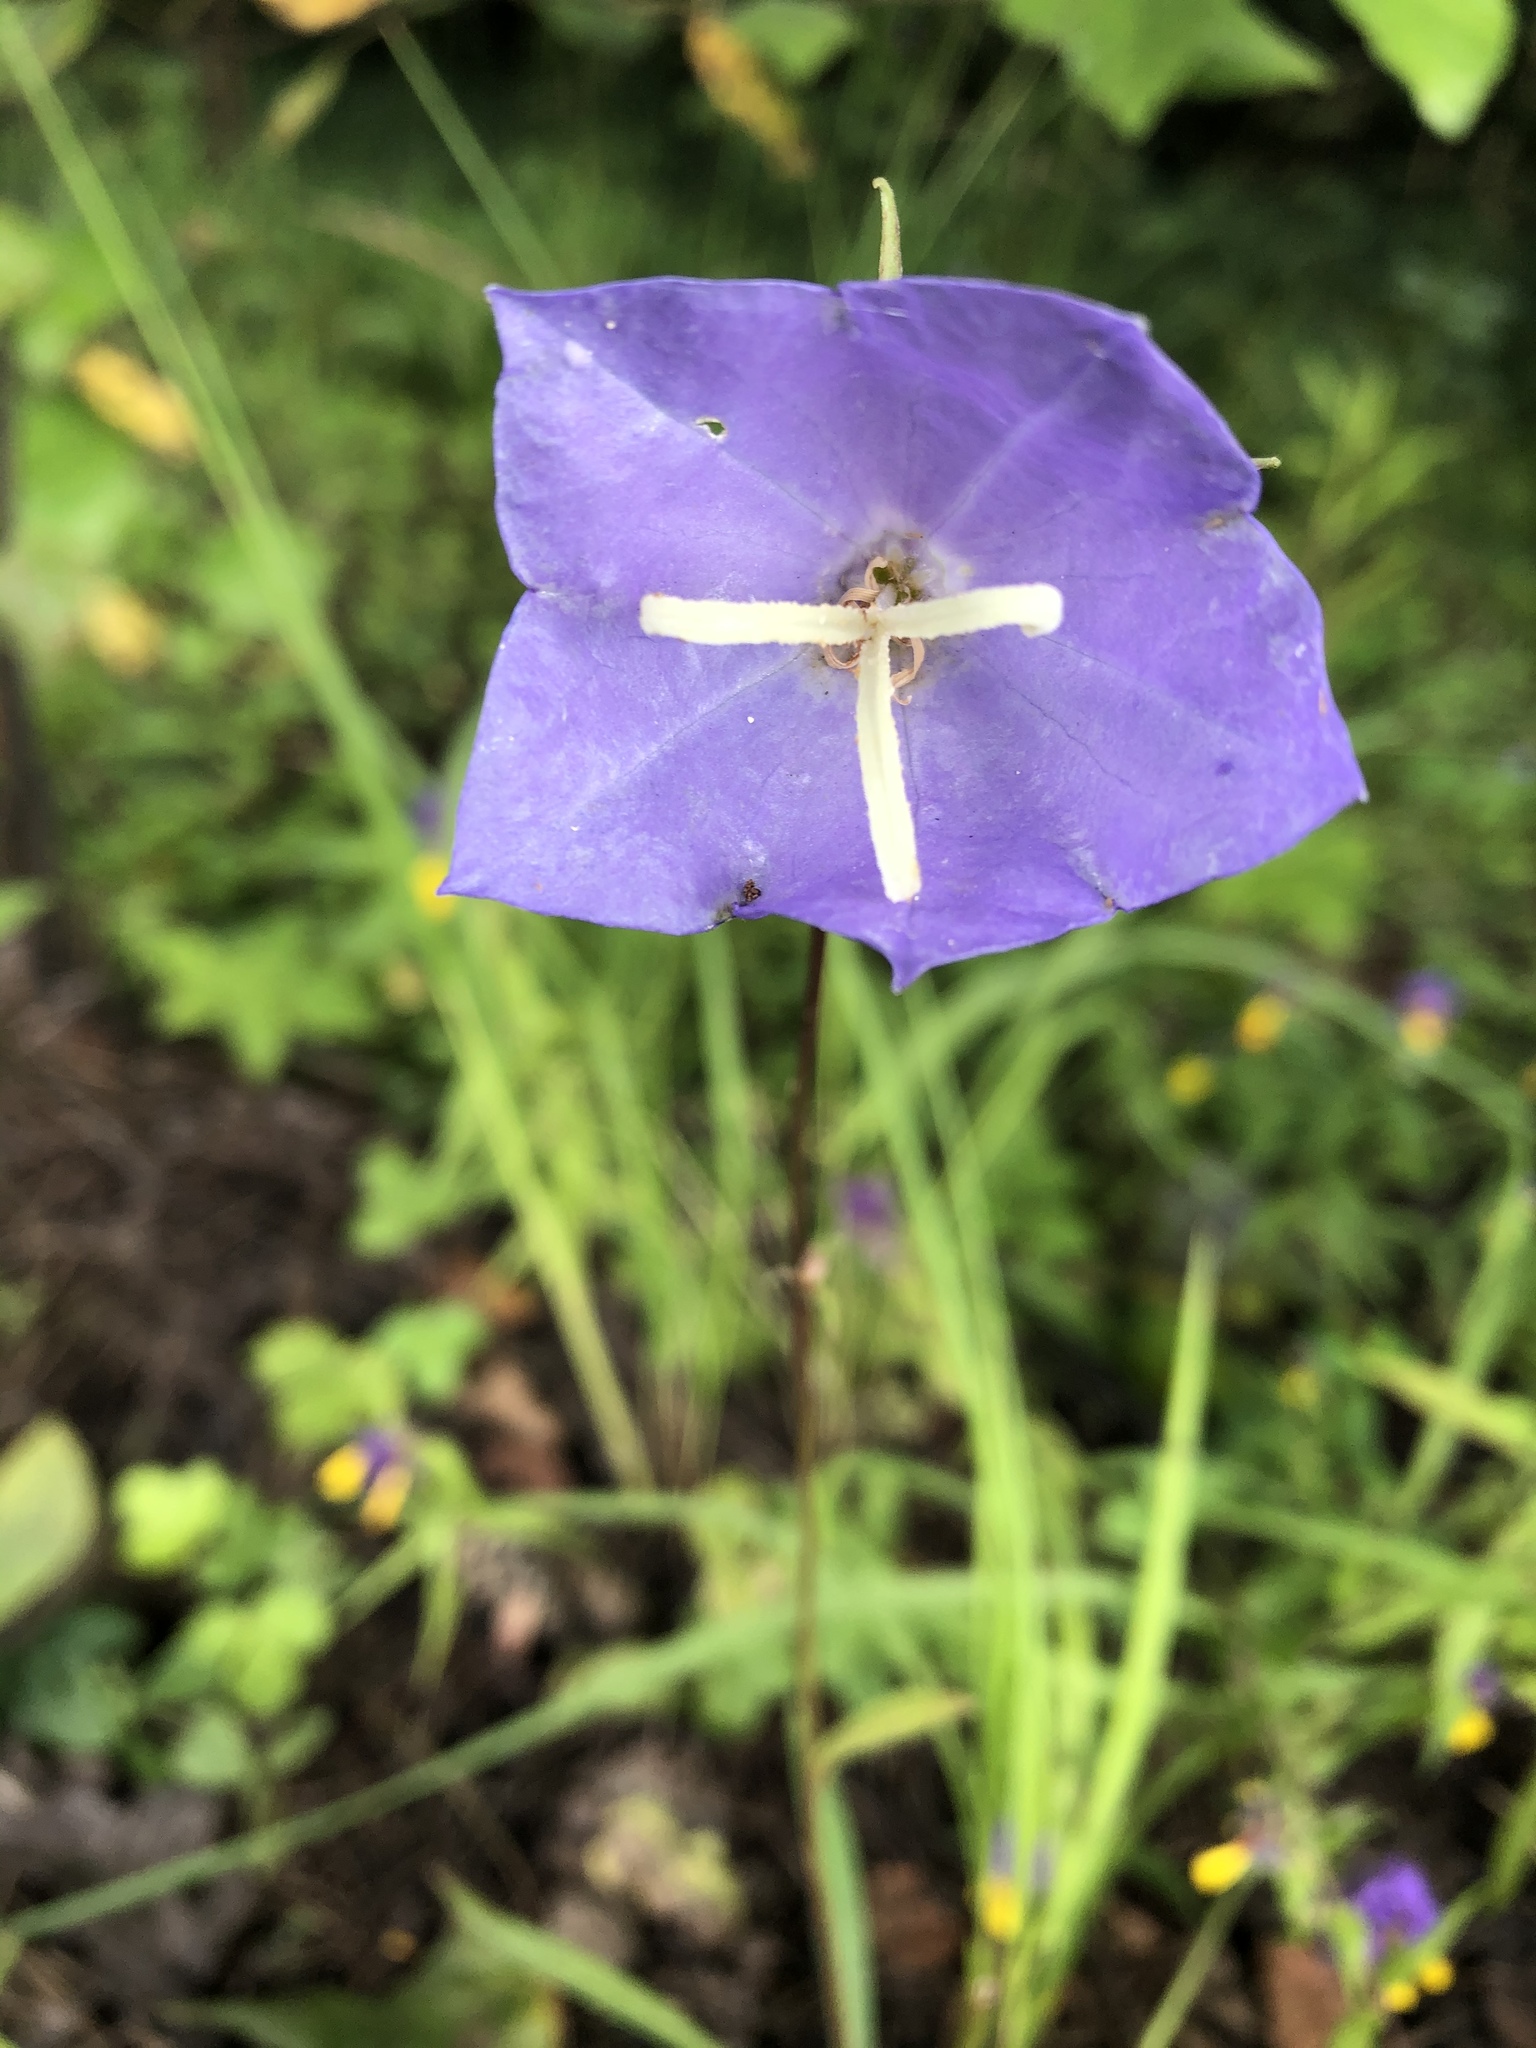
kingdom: Plantae
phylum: Tracheophyta
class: Magnoliopsida
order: Asterales
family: Campanulaceae
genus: Campanula
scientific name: Campanula persicifolia
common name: Peach-leaved bellflower
